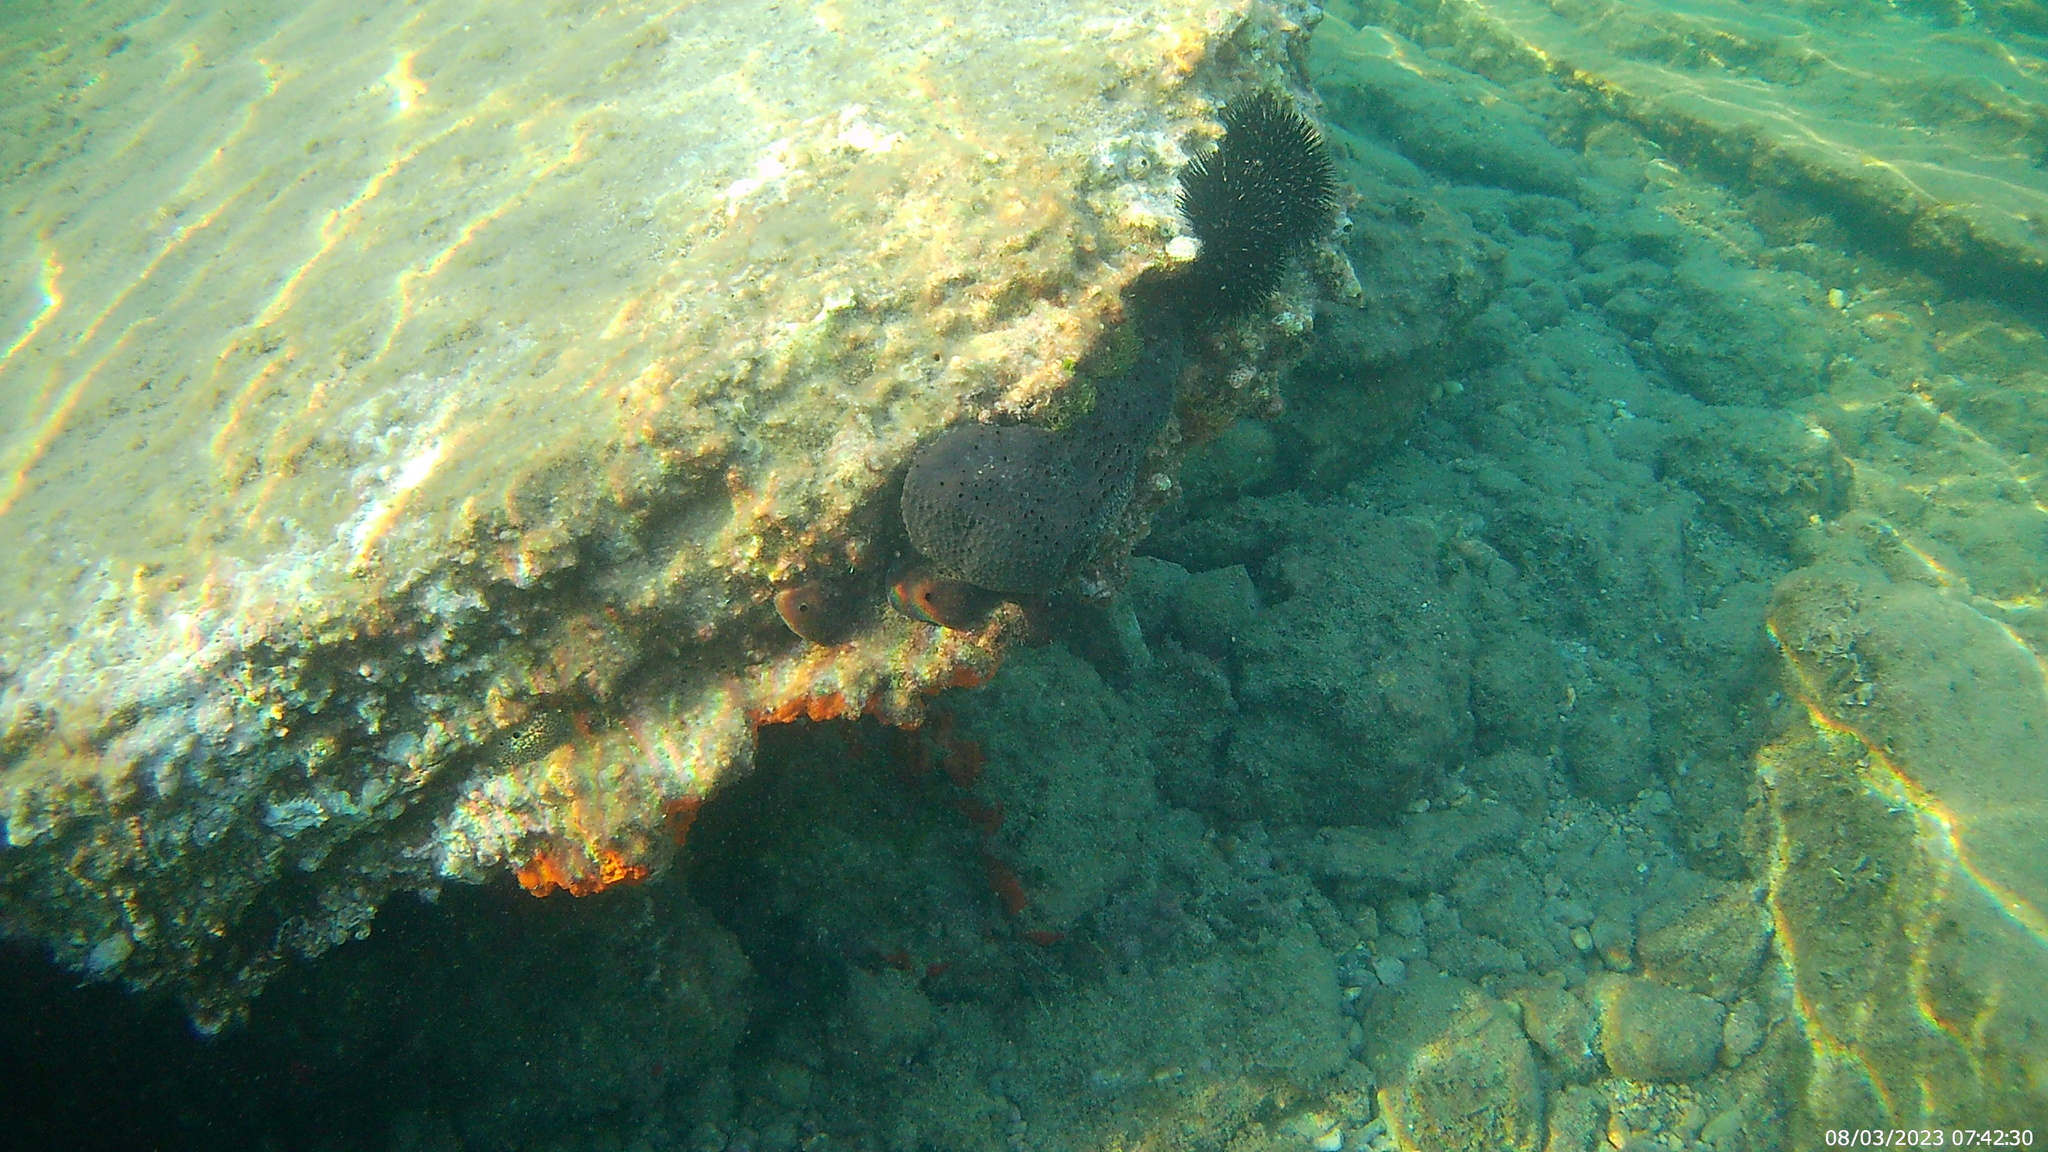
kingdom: Animalia
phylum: Porifera
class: Demospongiae
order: Dictyoceratida
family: Irciniidae
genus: Sarcotragus
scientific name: Sarcotragus spinosulus
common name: Black leather sponge
